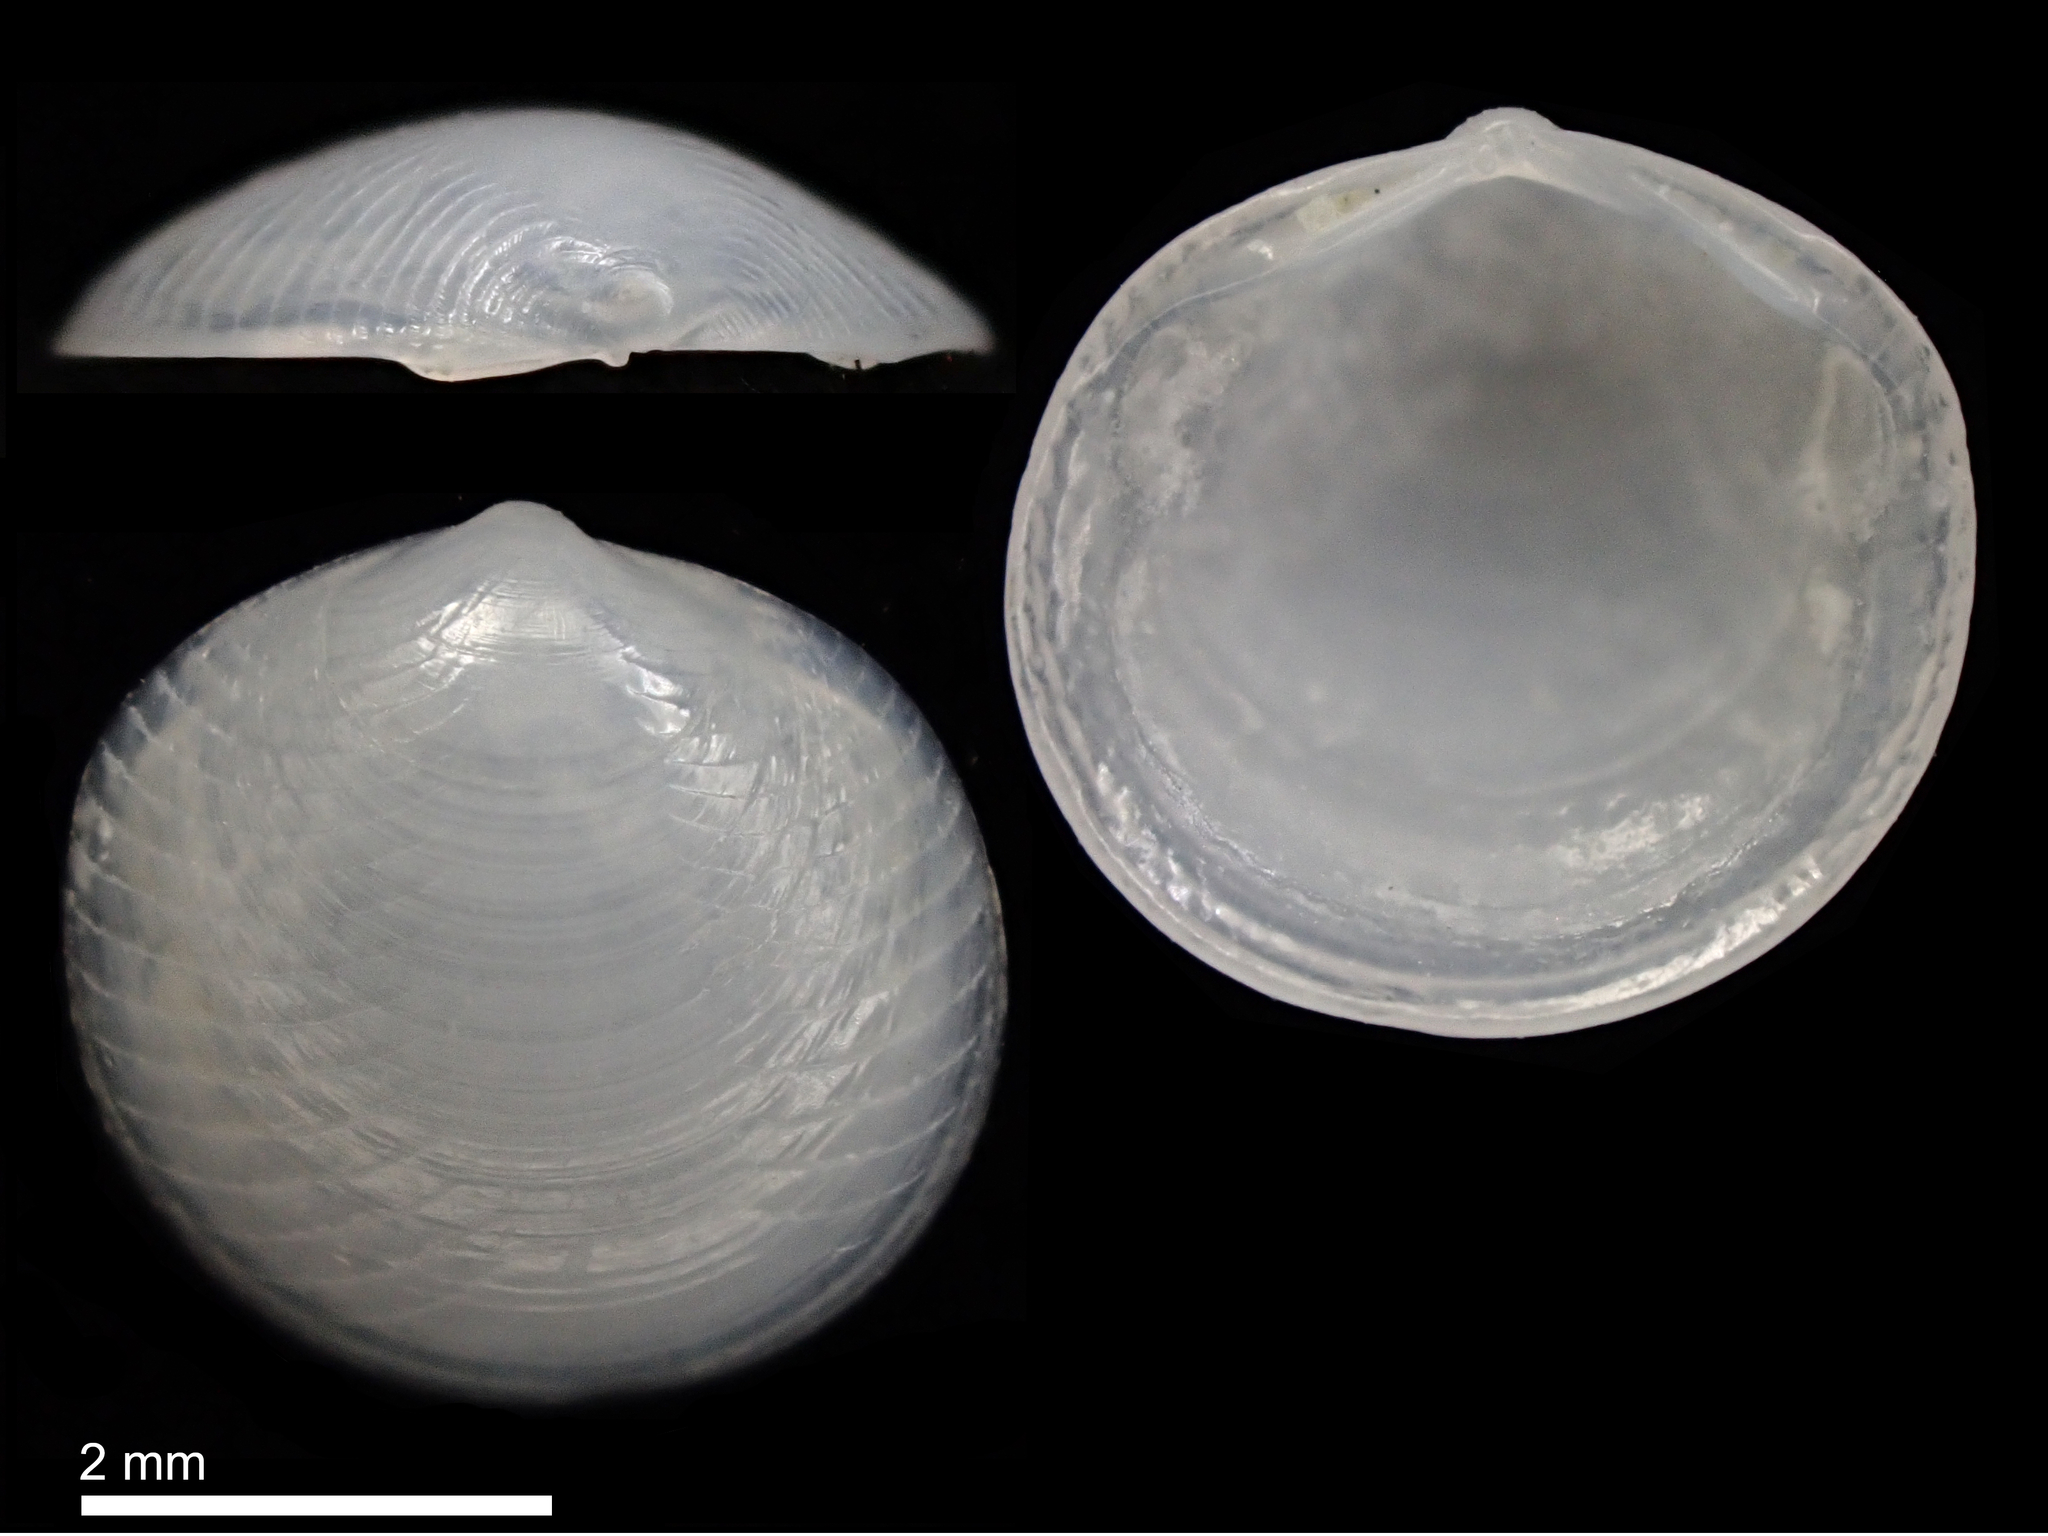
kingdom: Animalia
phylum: Mollusca
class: Bivalvia
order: Galeommatida
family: Lasaeidae
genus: Myllita
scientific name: Myllita vivens
